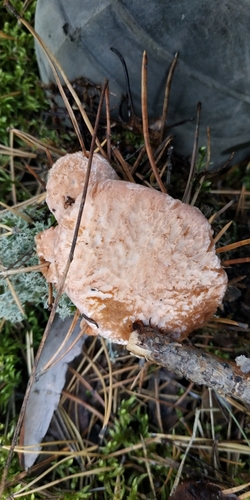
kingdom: Fungi
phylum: Basidiomycota
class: Agaricomycetes
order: Thelephorales
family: Bankeraceae
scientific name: Bankeraceae
